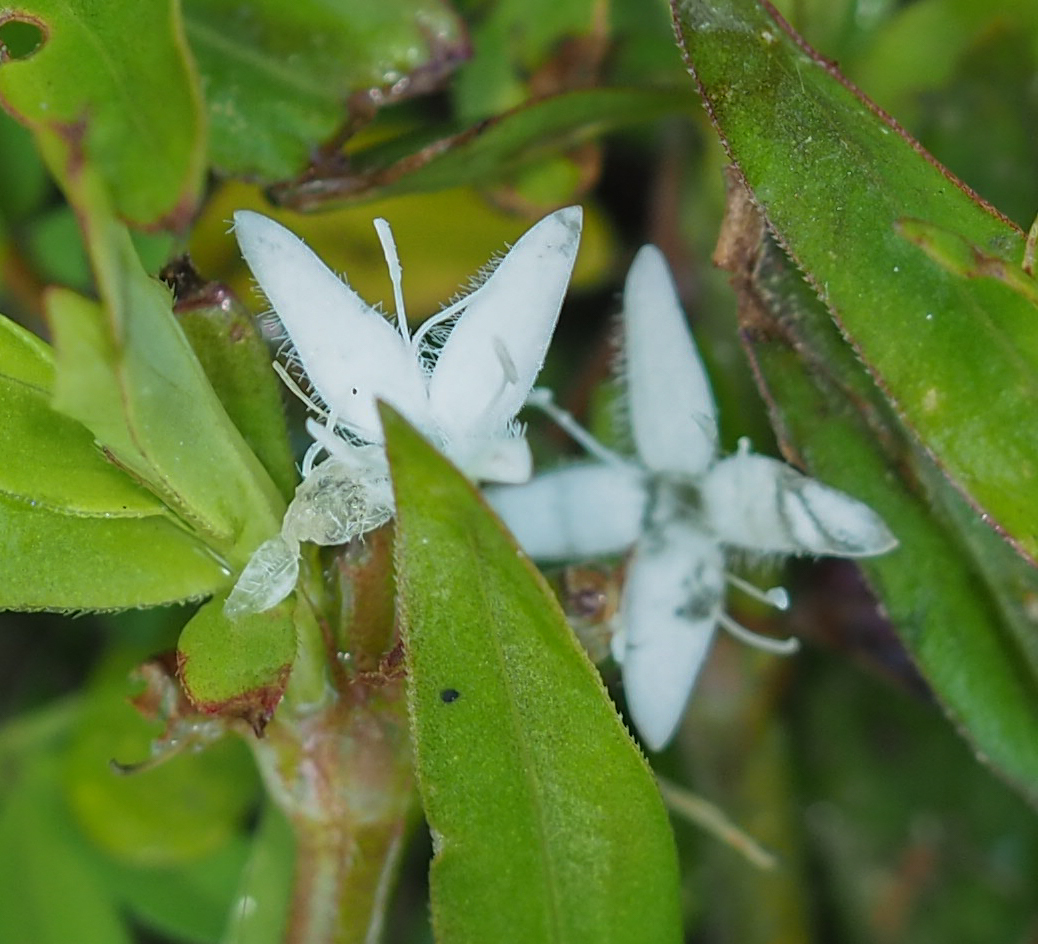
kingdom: Plantae
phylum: Tracheophyta
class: Magnoliopsida
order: Gentianales
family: Rubiaceae
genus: Diodia
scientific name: Diodia virginiana
